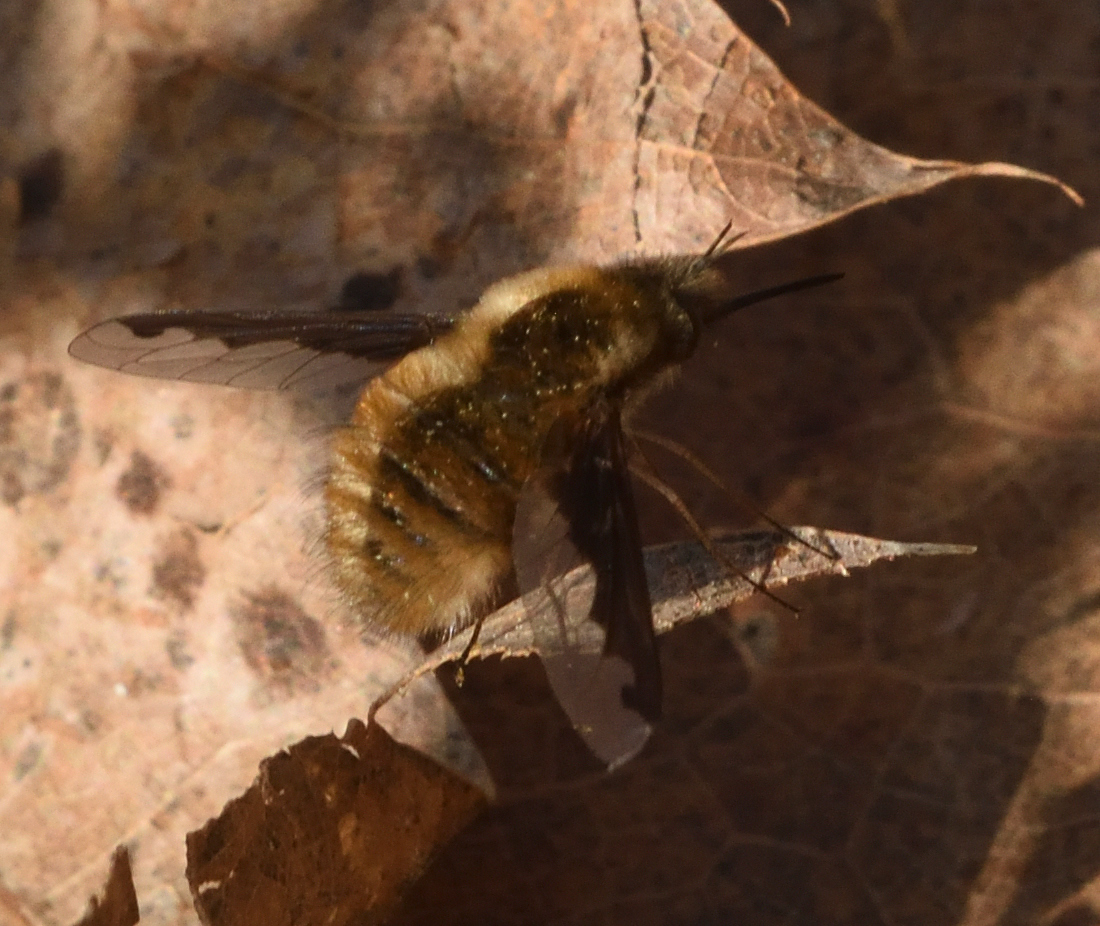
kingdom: Animalia
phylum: Arthropoda
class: Insecta
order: Diptera
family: Bombyliidae
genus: Bombylius
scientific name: Bombylius major
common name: Bee fly
